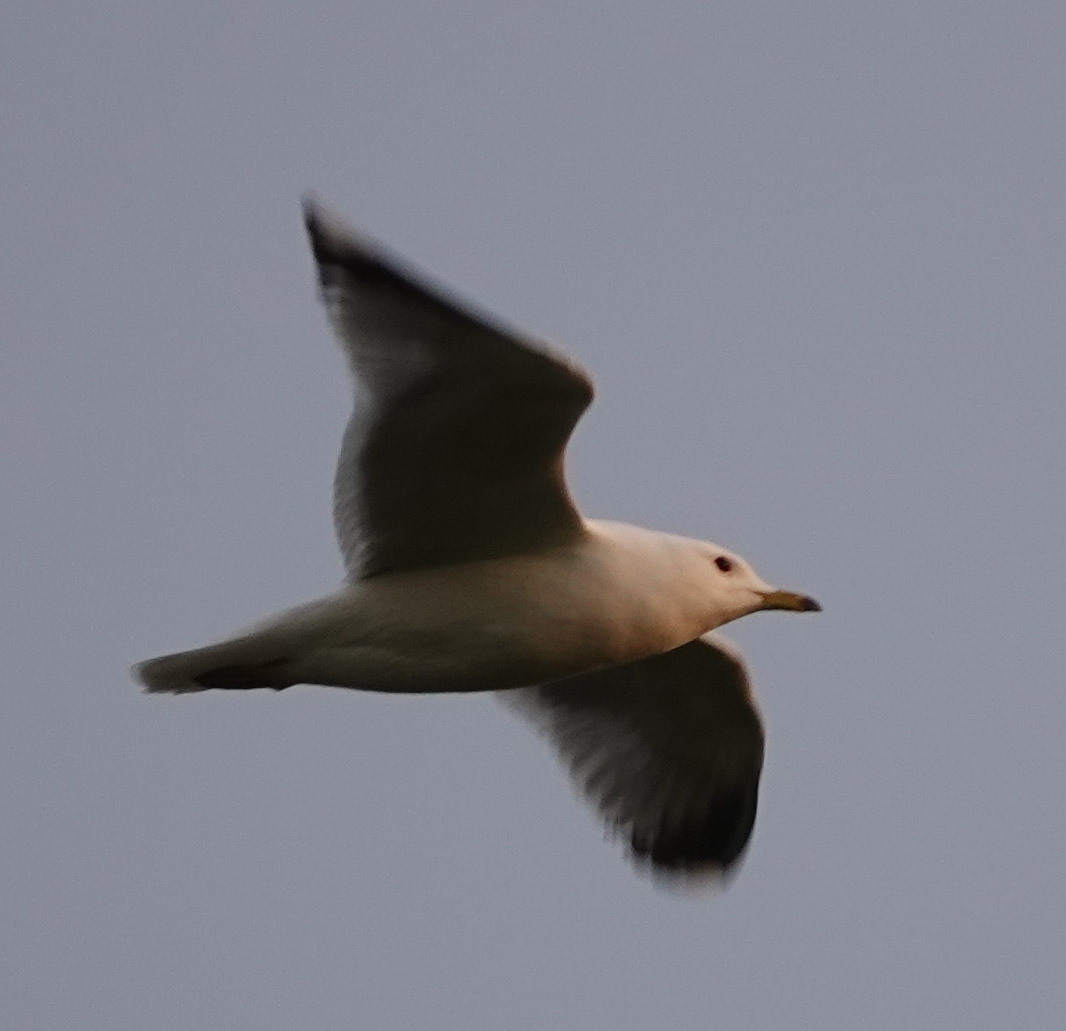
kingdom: Animalia
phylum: Chordata
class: Aves
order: Charadriiformes
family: Laridae
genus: Larus
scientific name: Larus canus
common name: Mew gull
